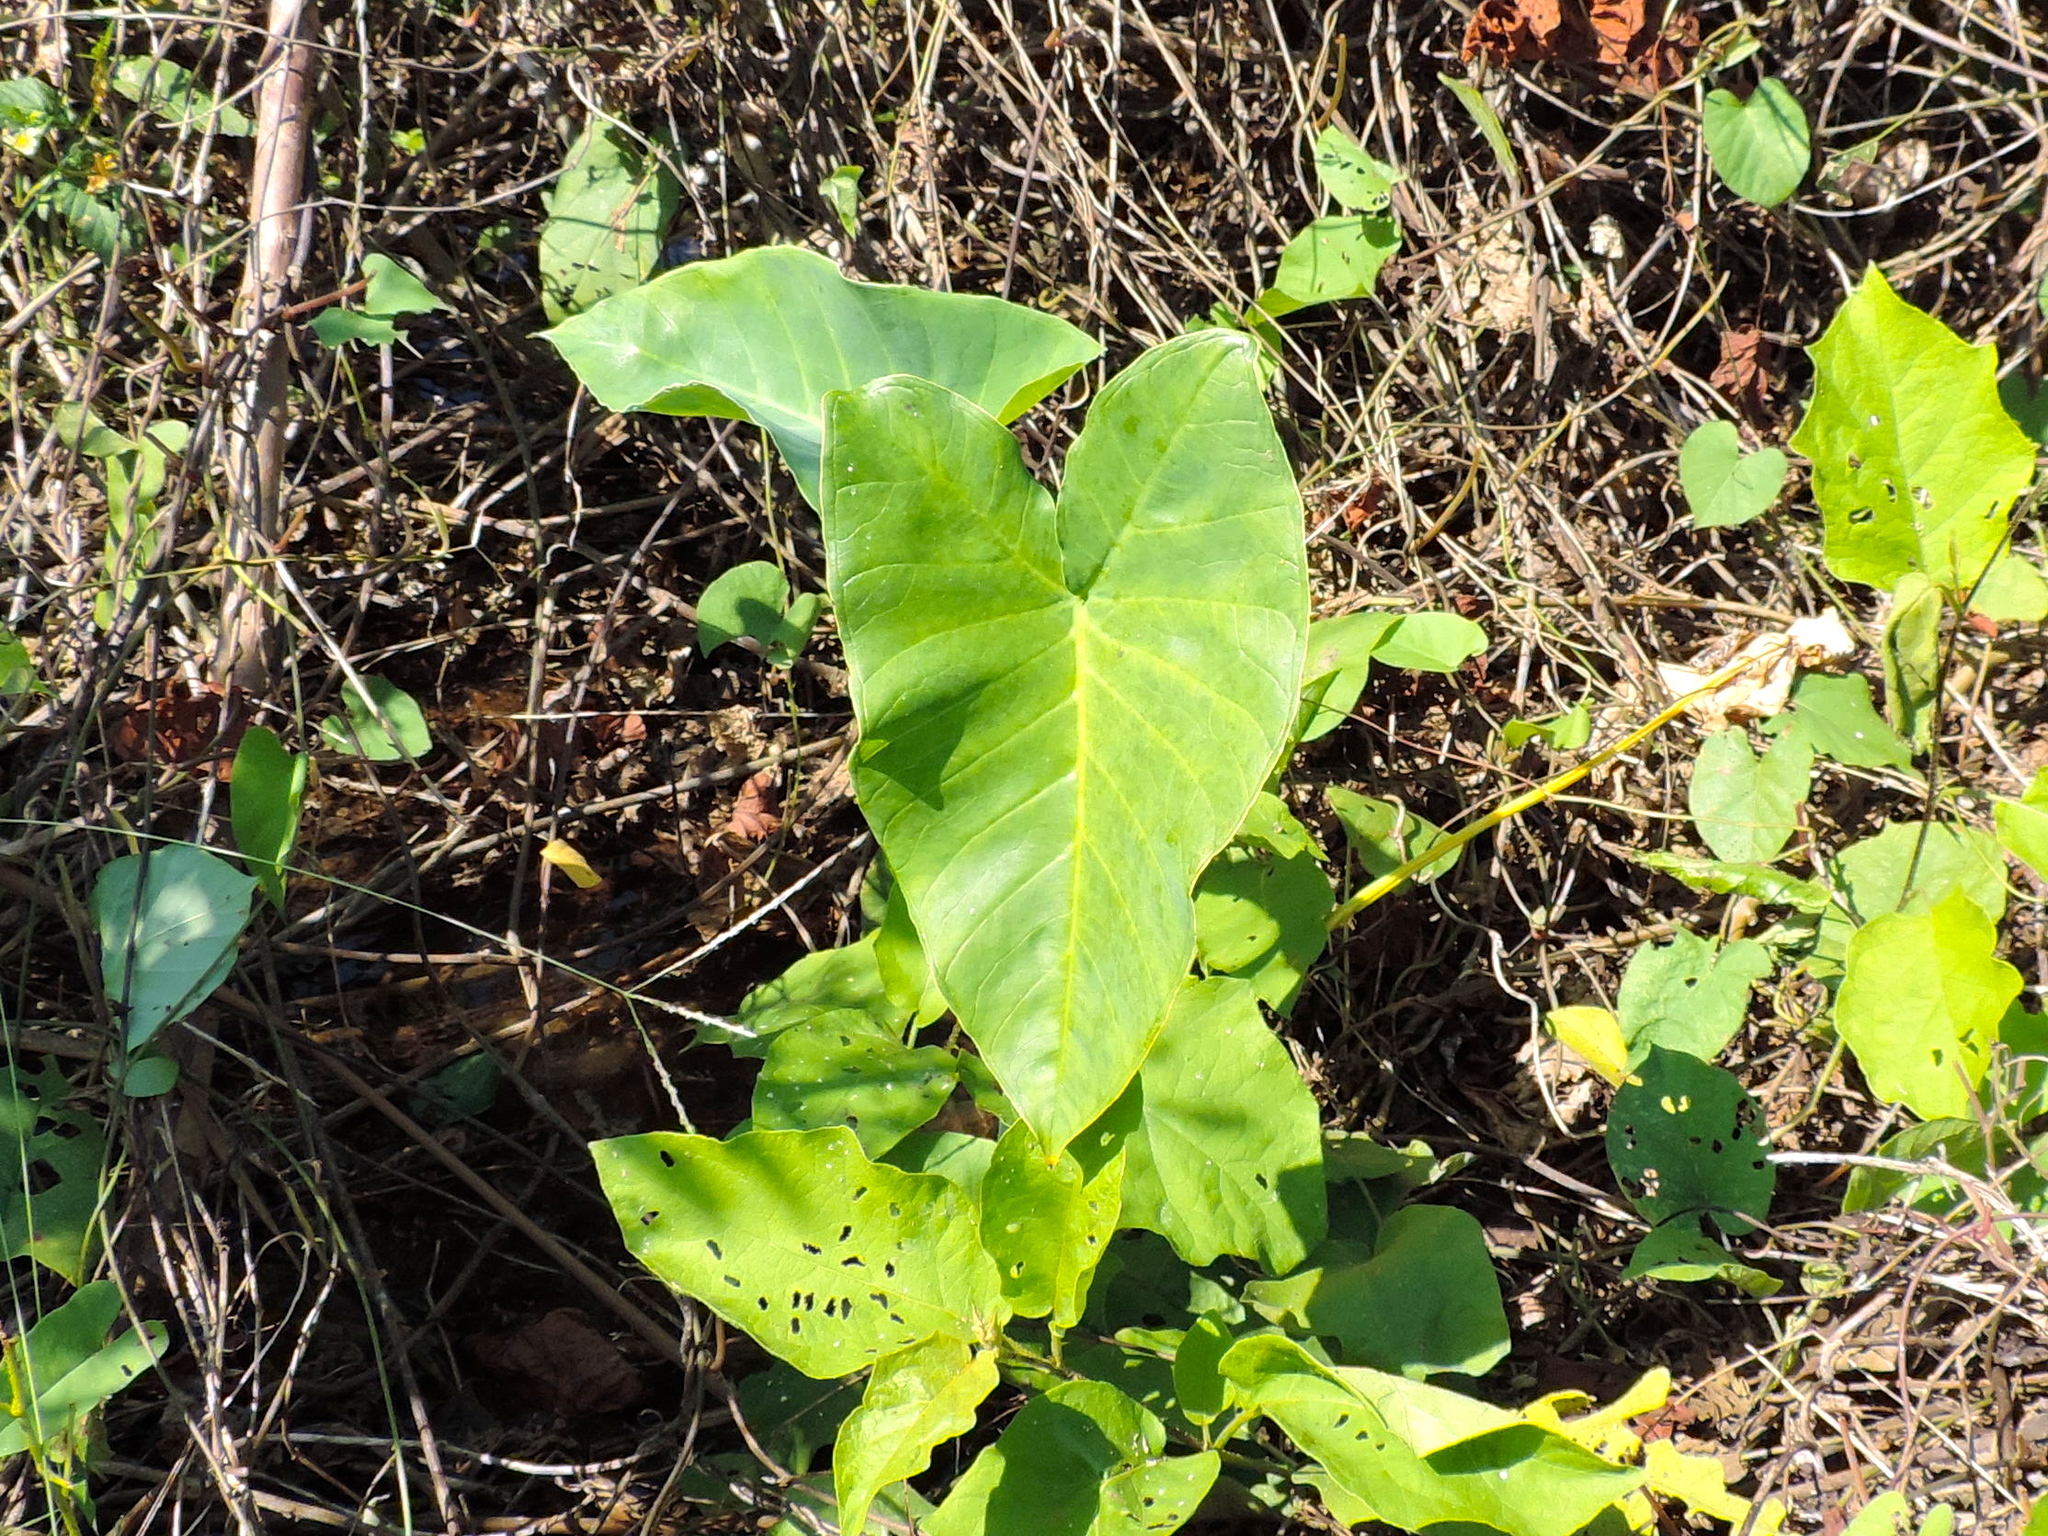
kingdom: Plantae
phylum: Tracheophyta
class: Liliopsida
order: Alismatales
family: Araceae
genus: Xanthosoma
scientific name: Xanthosoma
